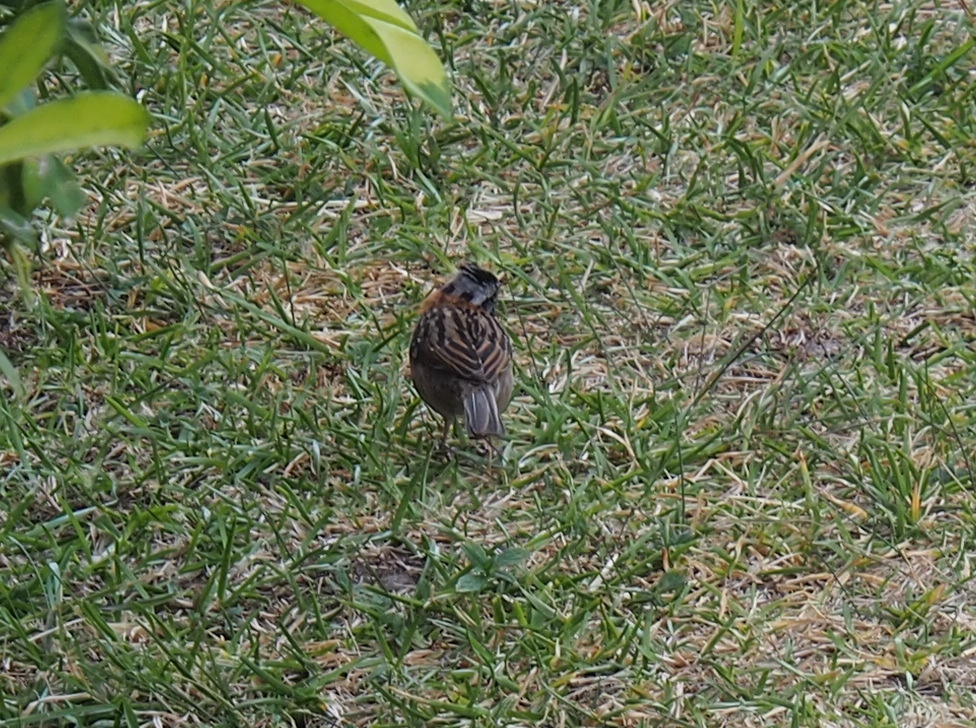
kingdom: Animalia
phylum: Chordata
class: Aves
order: Passeriformes
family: Passerellidae
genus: Zonotrichia
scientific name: Zonotrichia capensis
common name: Rufous-collared sparrow
